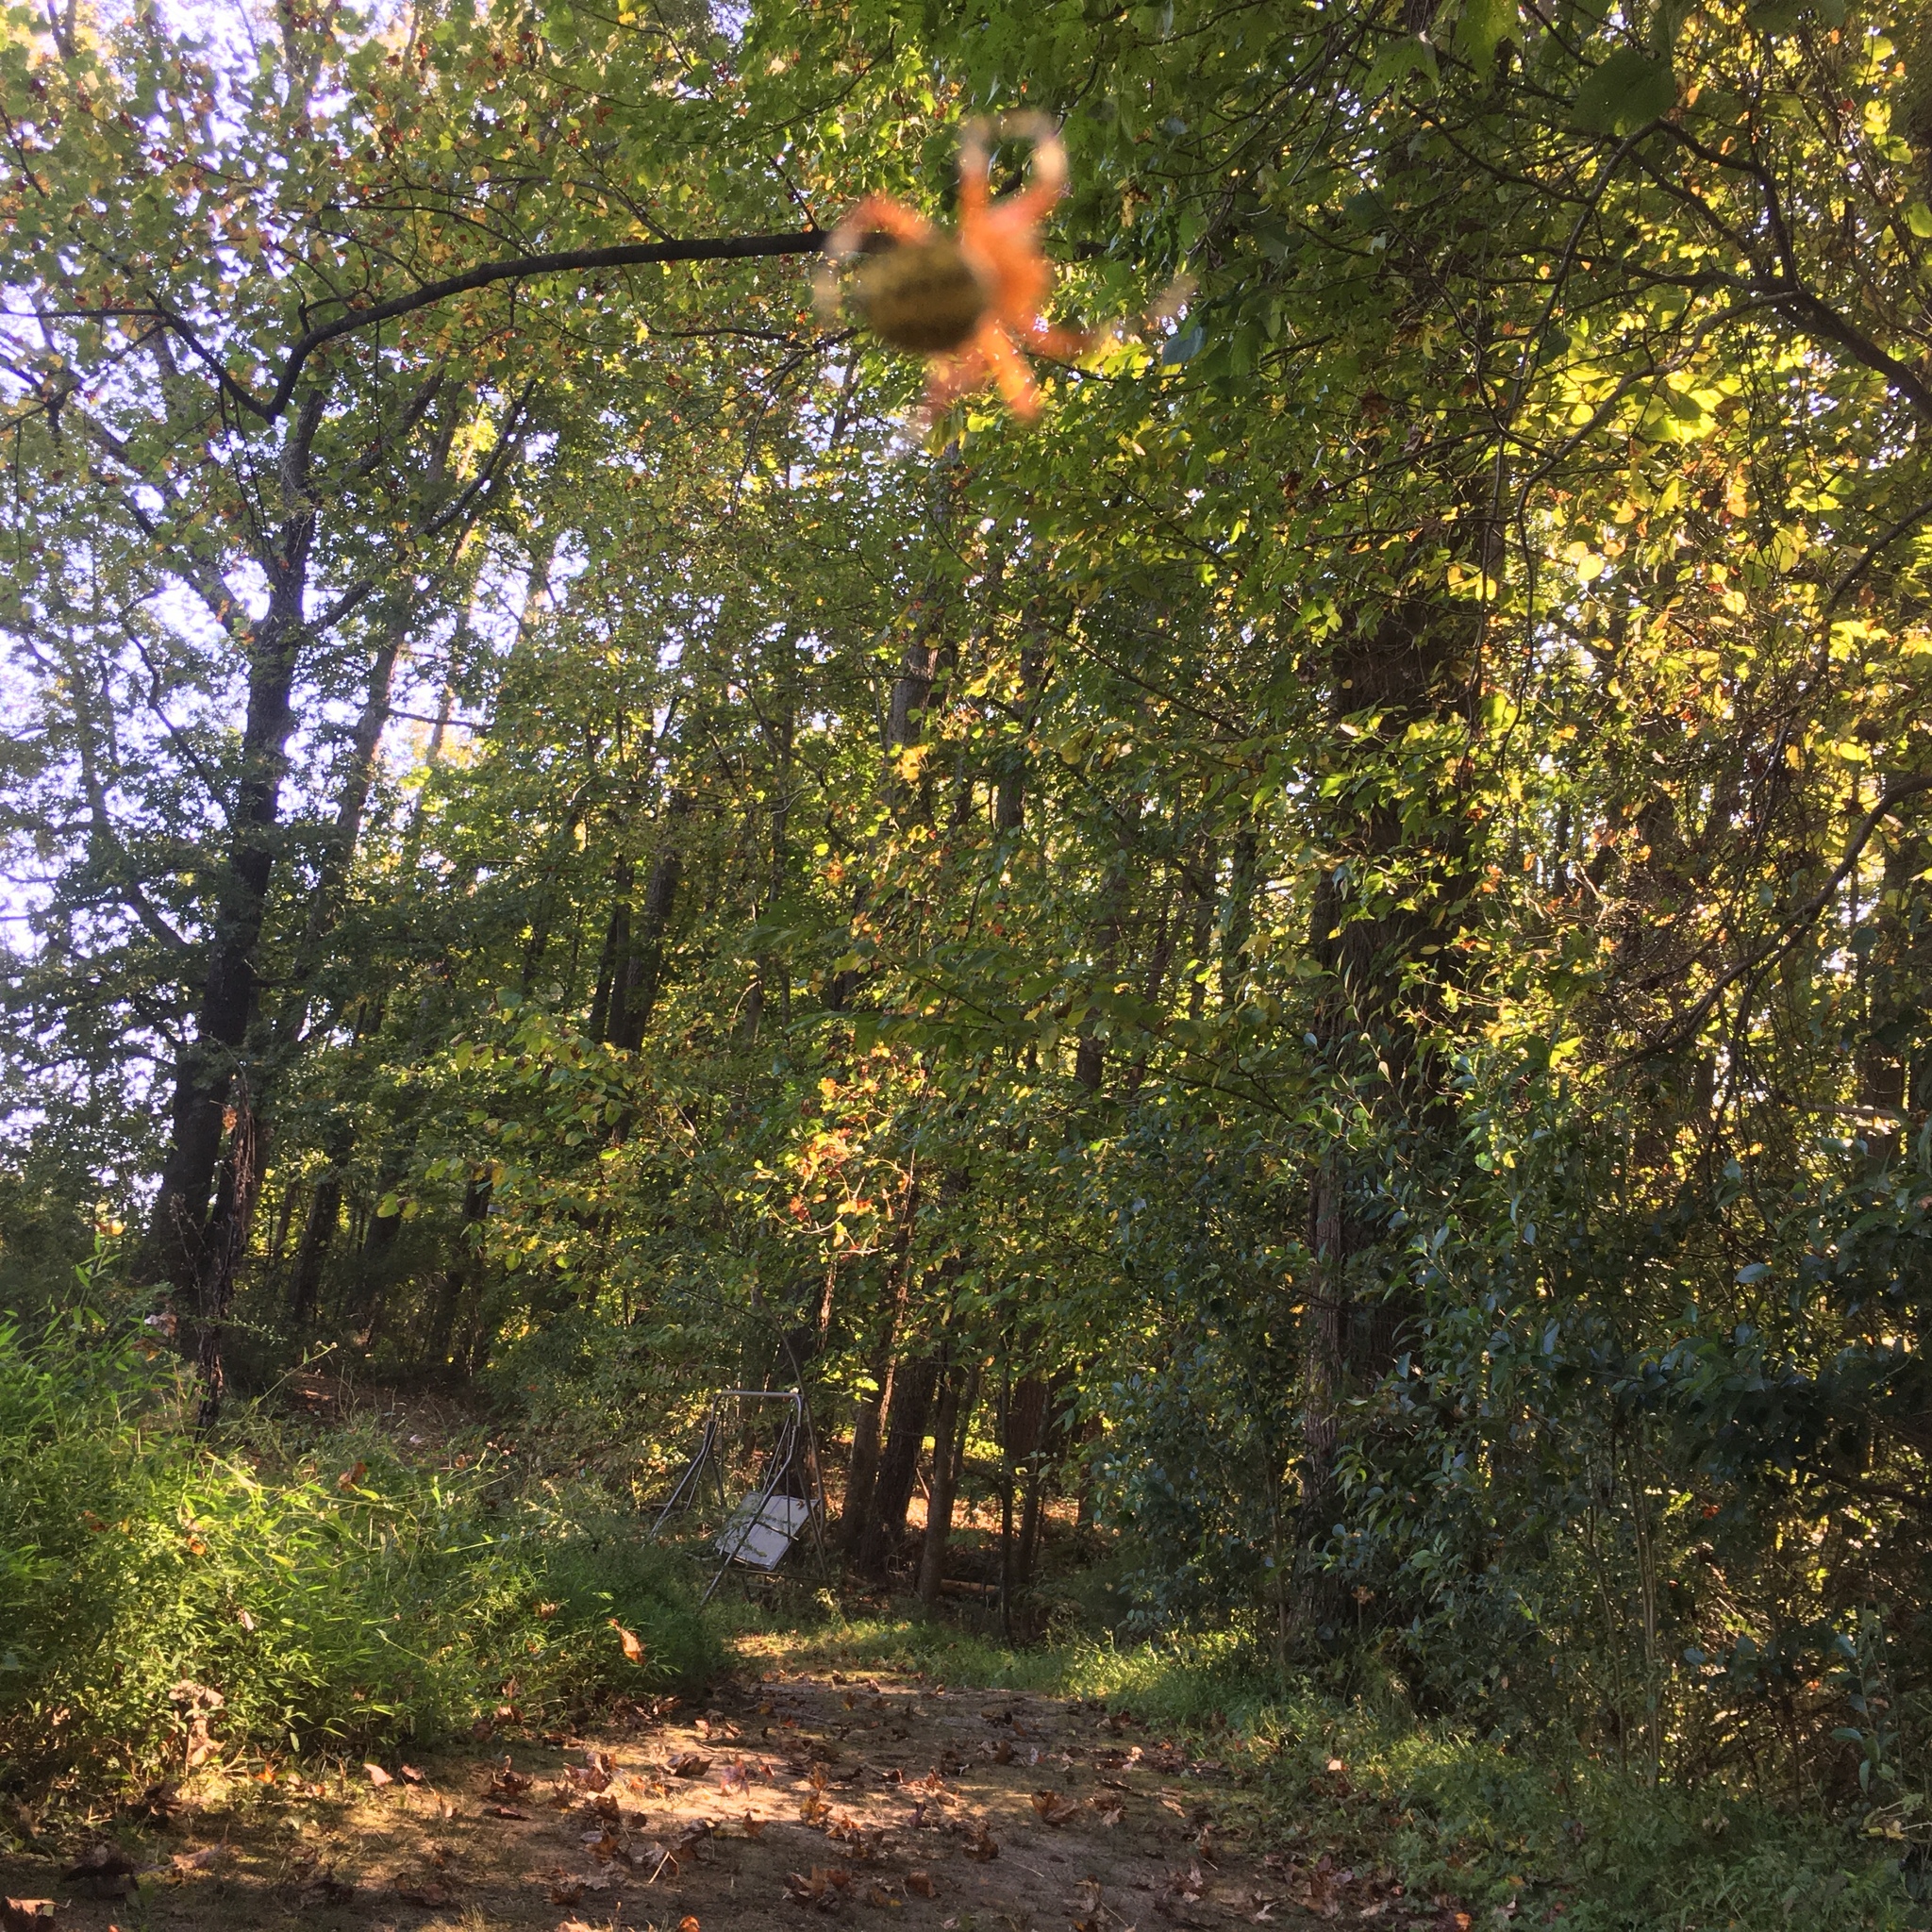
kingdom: Animalia
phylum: Arthropoda
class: Arachnida
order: Araneae
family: Araneidae
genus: Araneus
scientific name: Araneus marmoreus
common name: Marbled orbweaver
